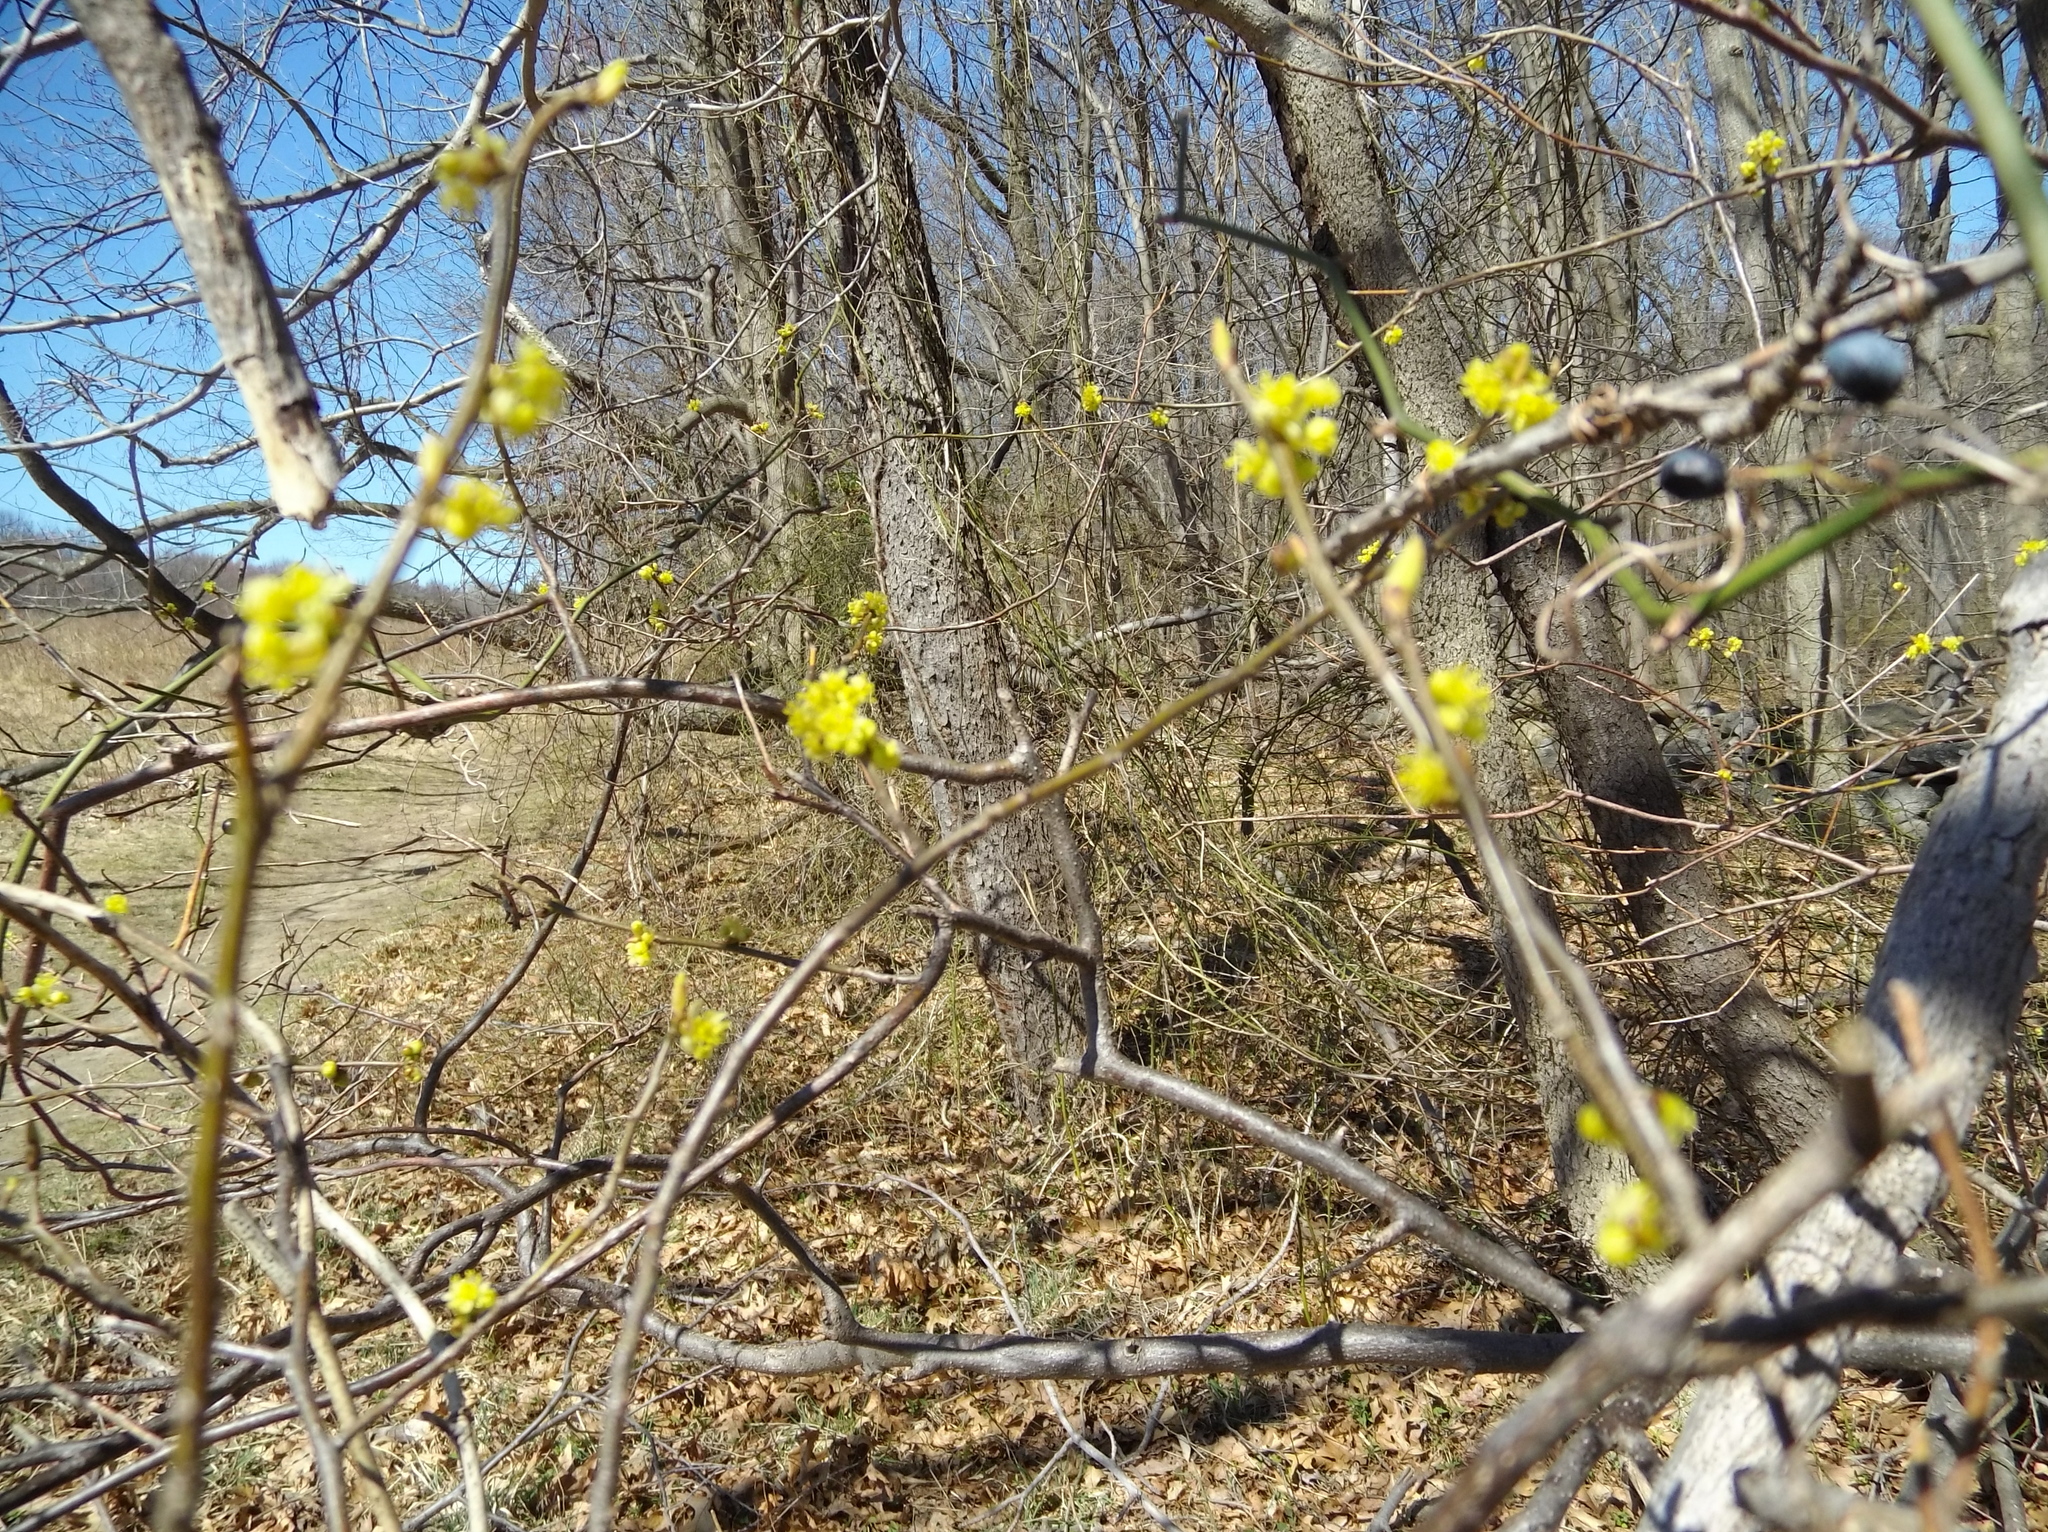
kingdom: Plantae
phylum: Tracheophyta
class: Magnoliopsida
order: Laurales
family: Lauraceae
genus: Lindera
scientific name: Lindera benzoin
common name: Spicebush
